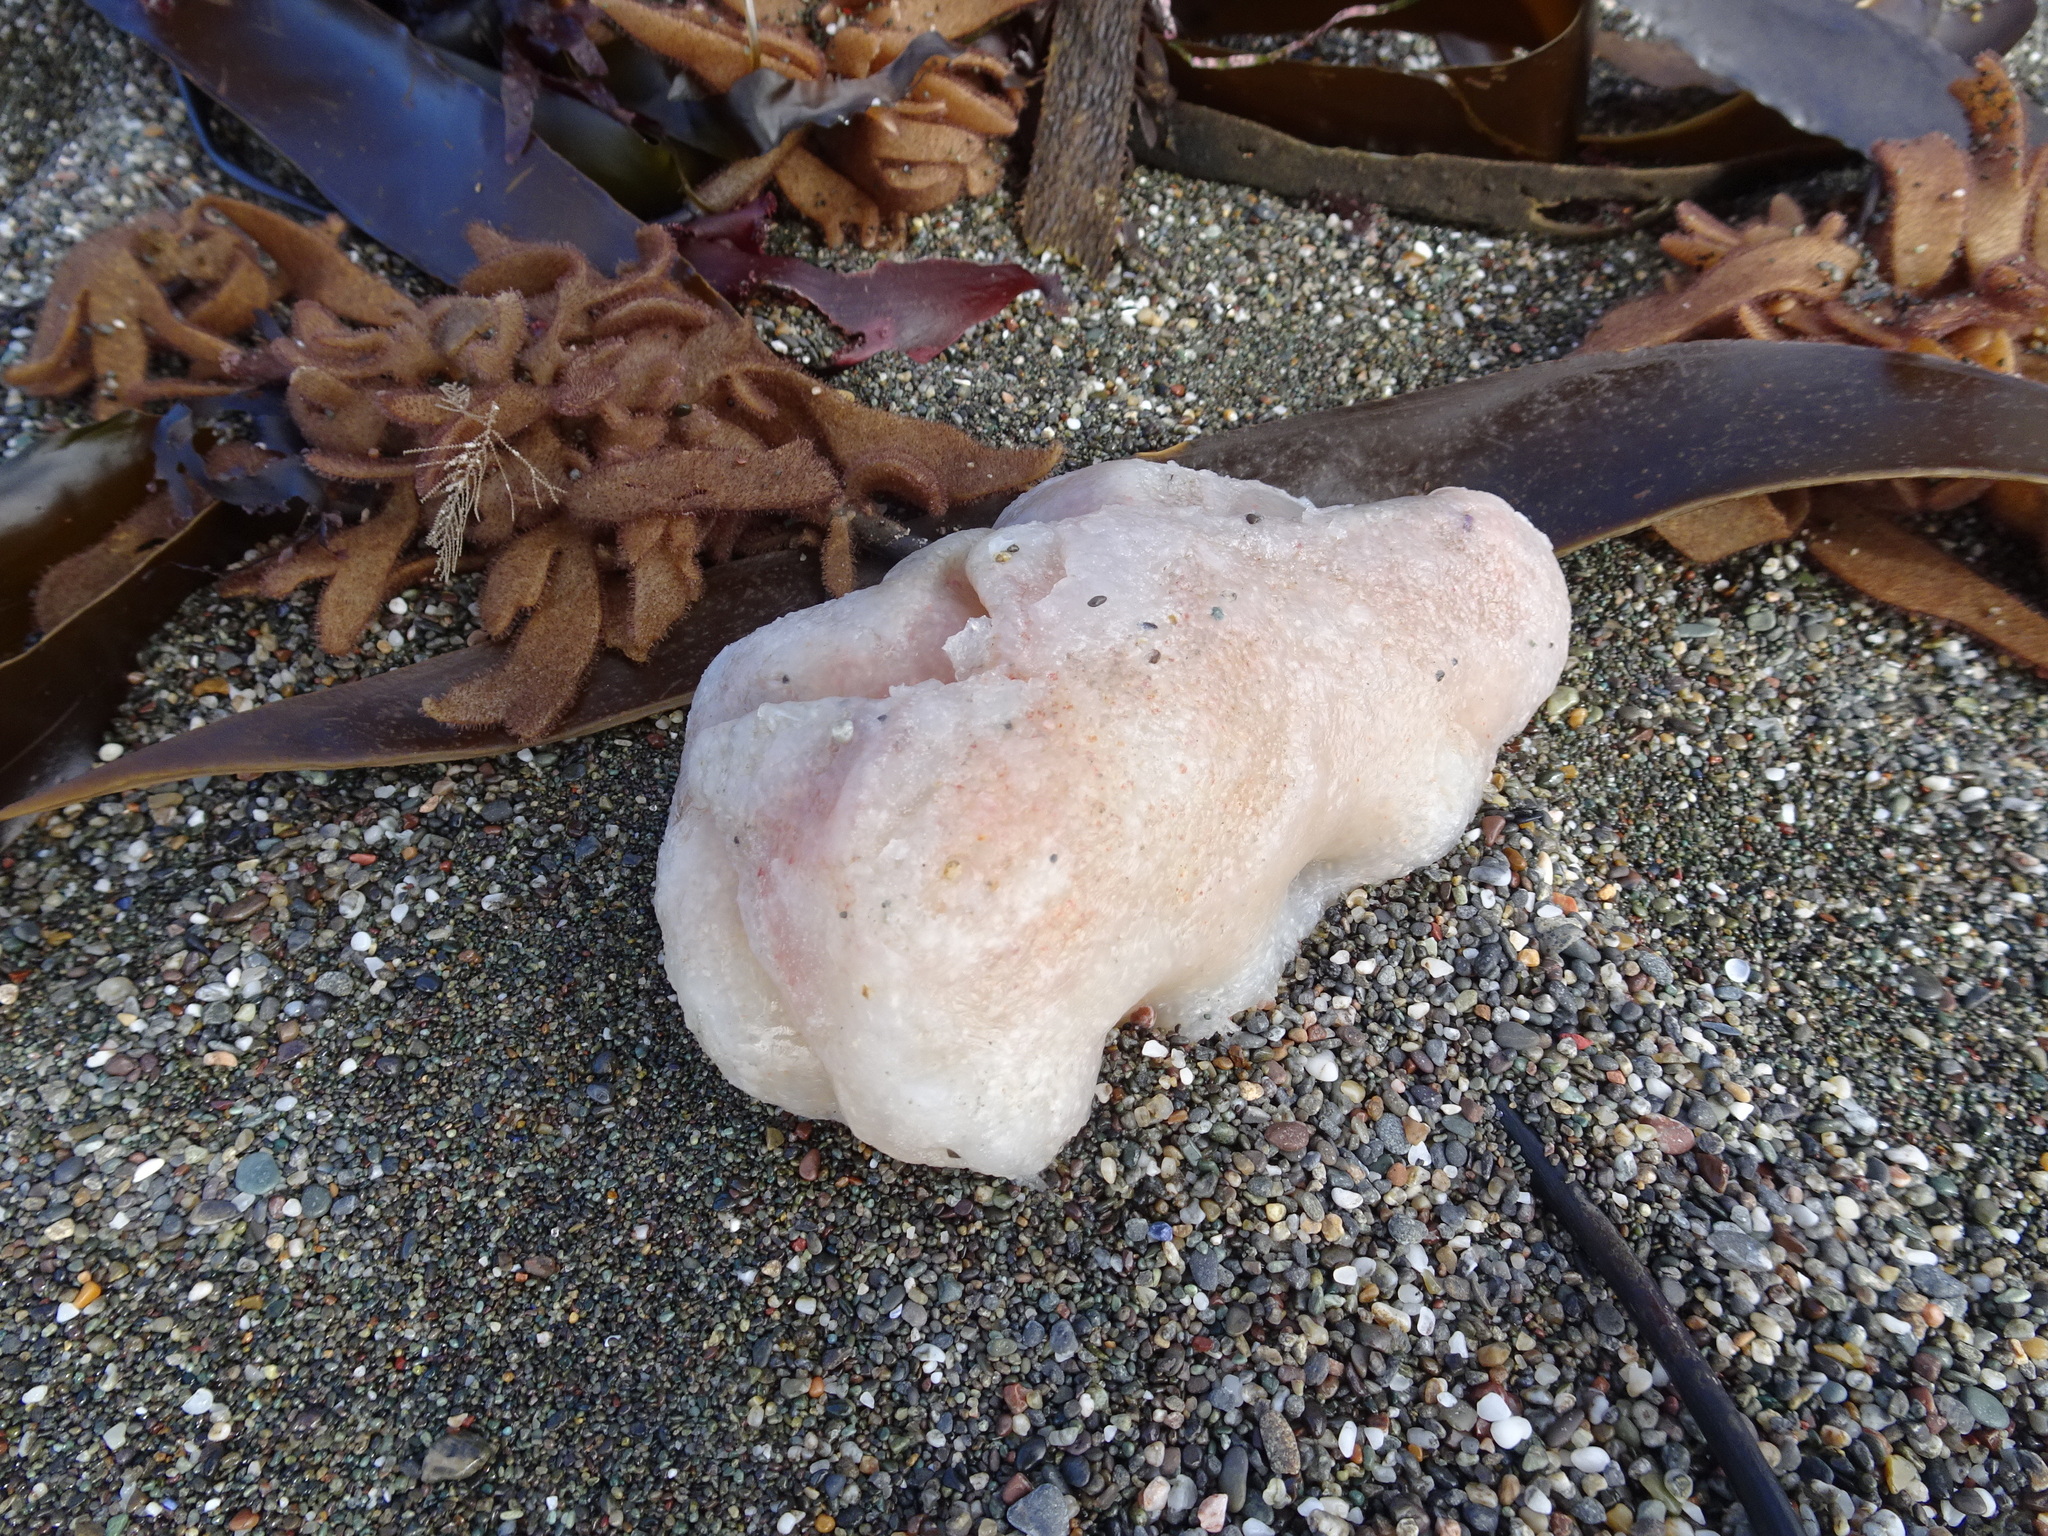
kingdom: Animalia
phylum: Chordata
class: Ascidiacea
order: Aplousobranchia
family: Polyclinidae
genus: Aplidium
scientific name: Aplidium californicum
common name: Sea pork
